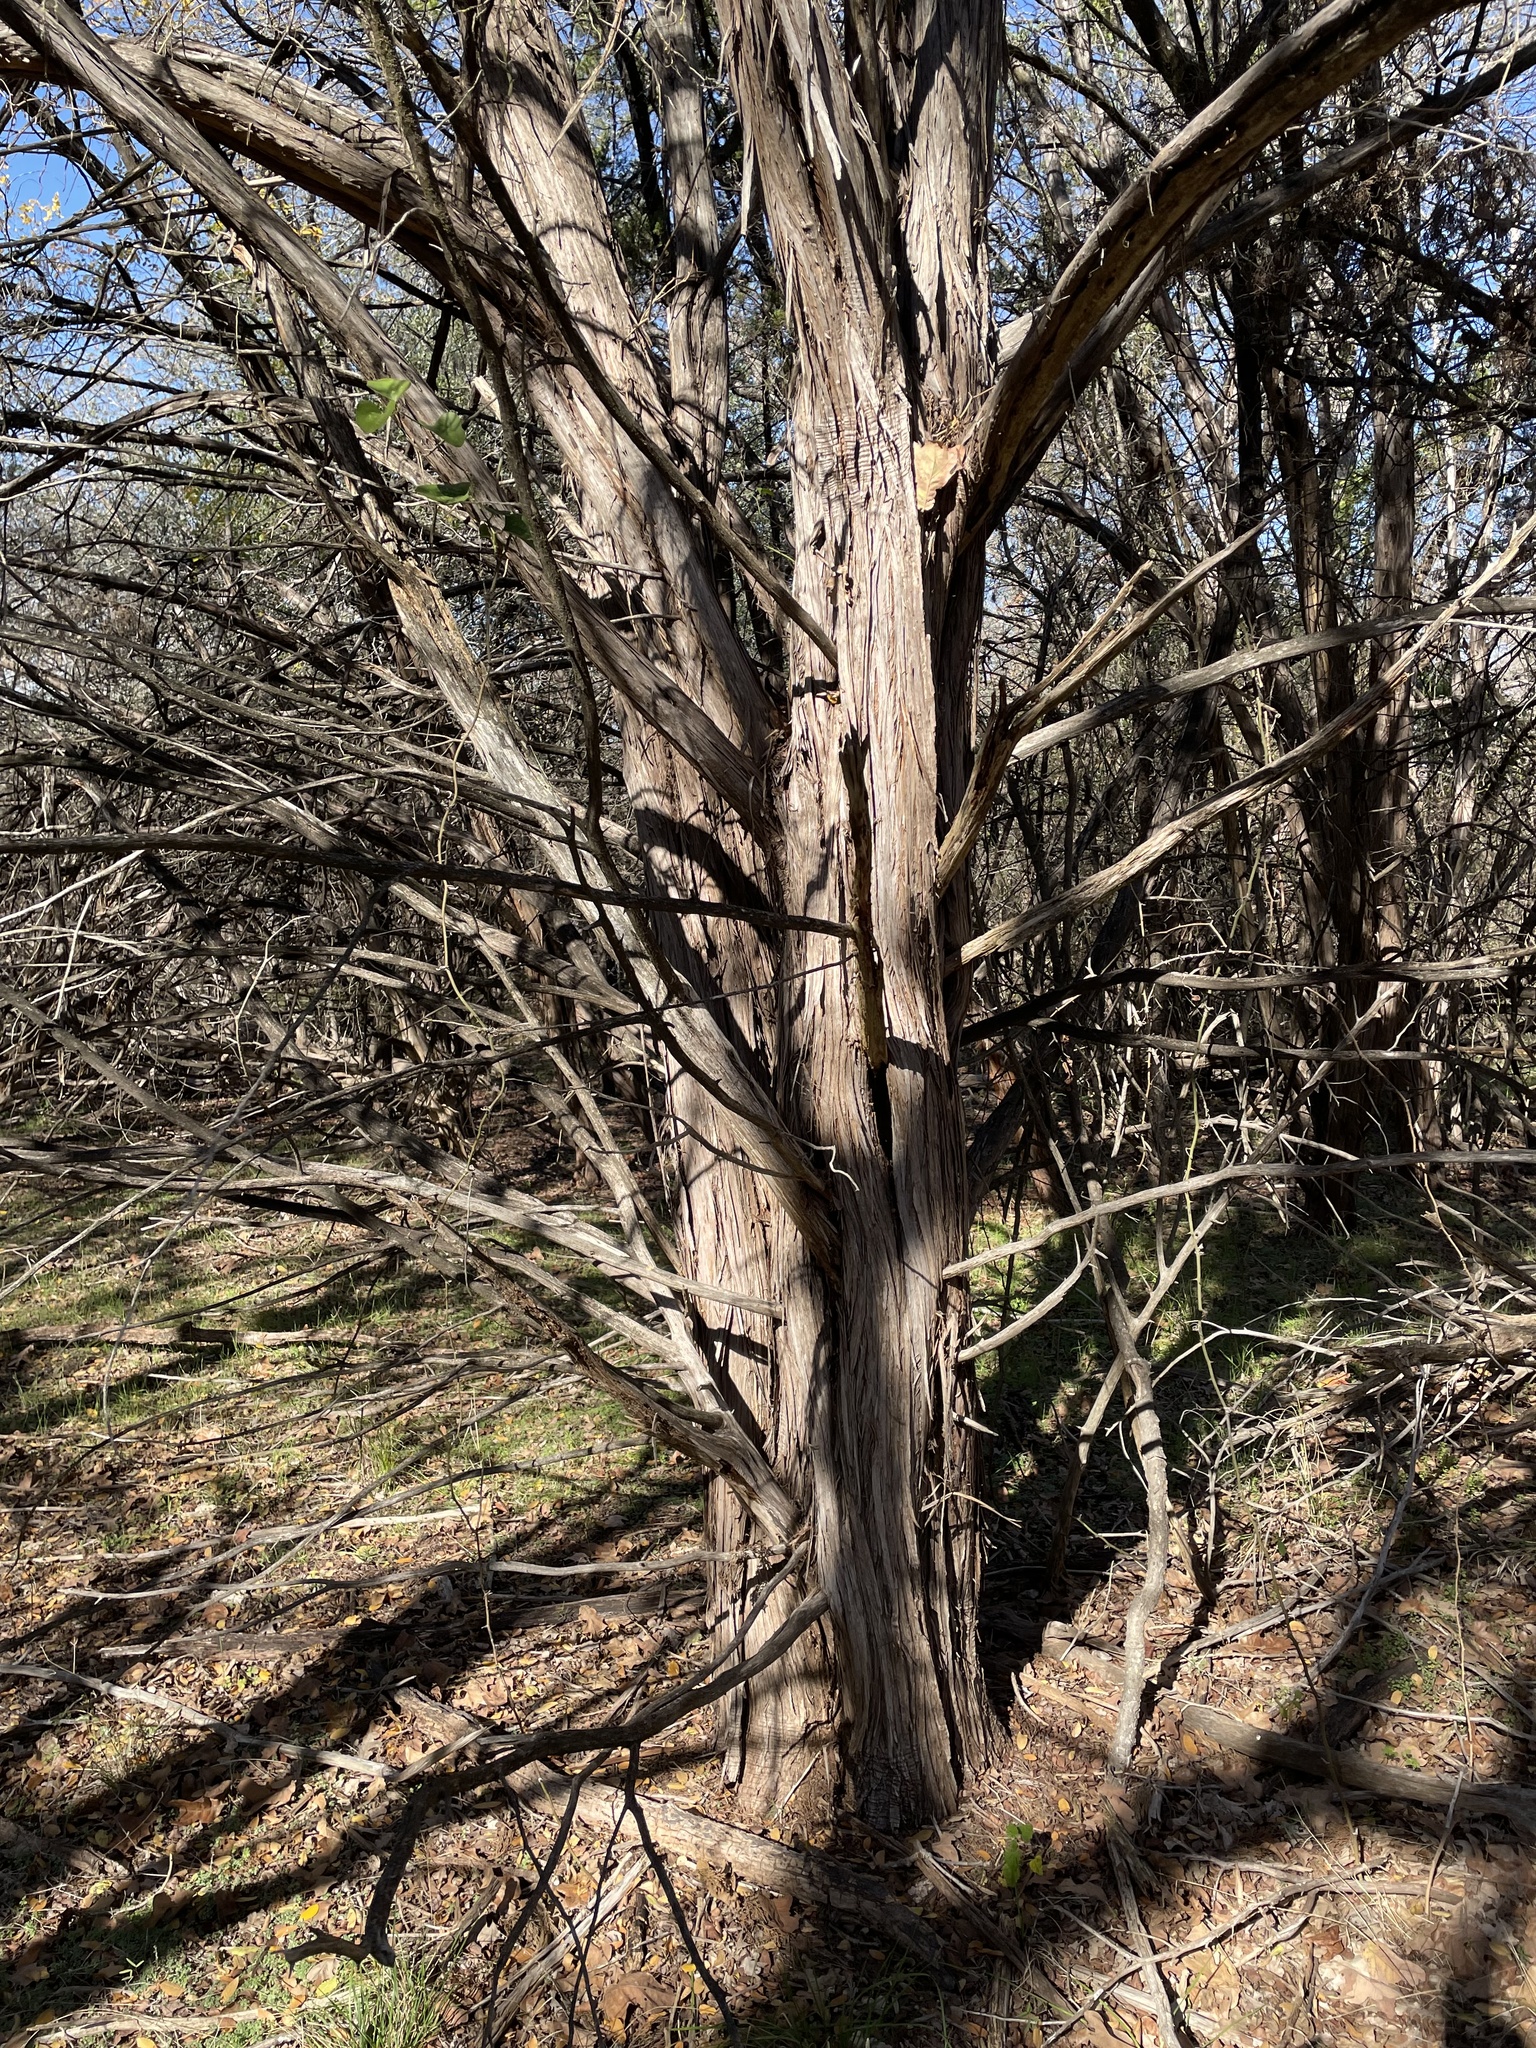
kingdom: Plantae
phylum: Tracheophyta
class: Pinopsida
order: Pinales
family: Cupressaceae
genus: Juniperus
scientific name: Juniperus ashei
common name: Mexican juniper
